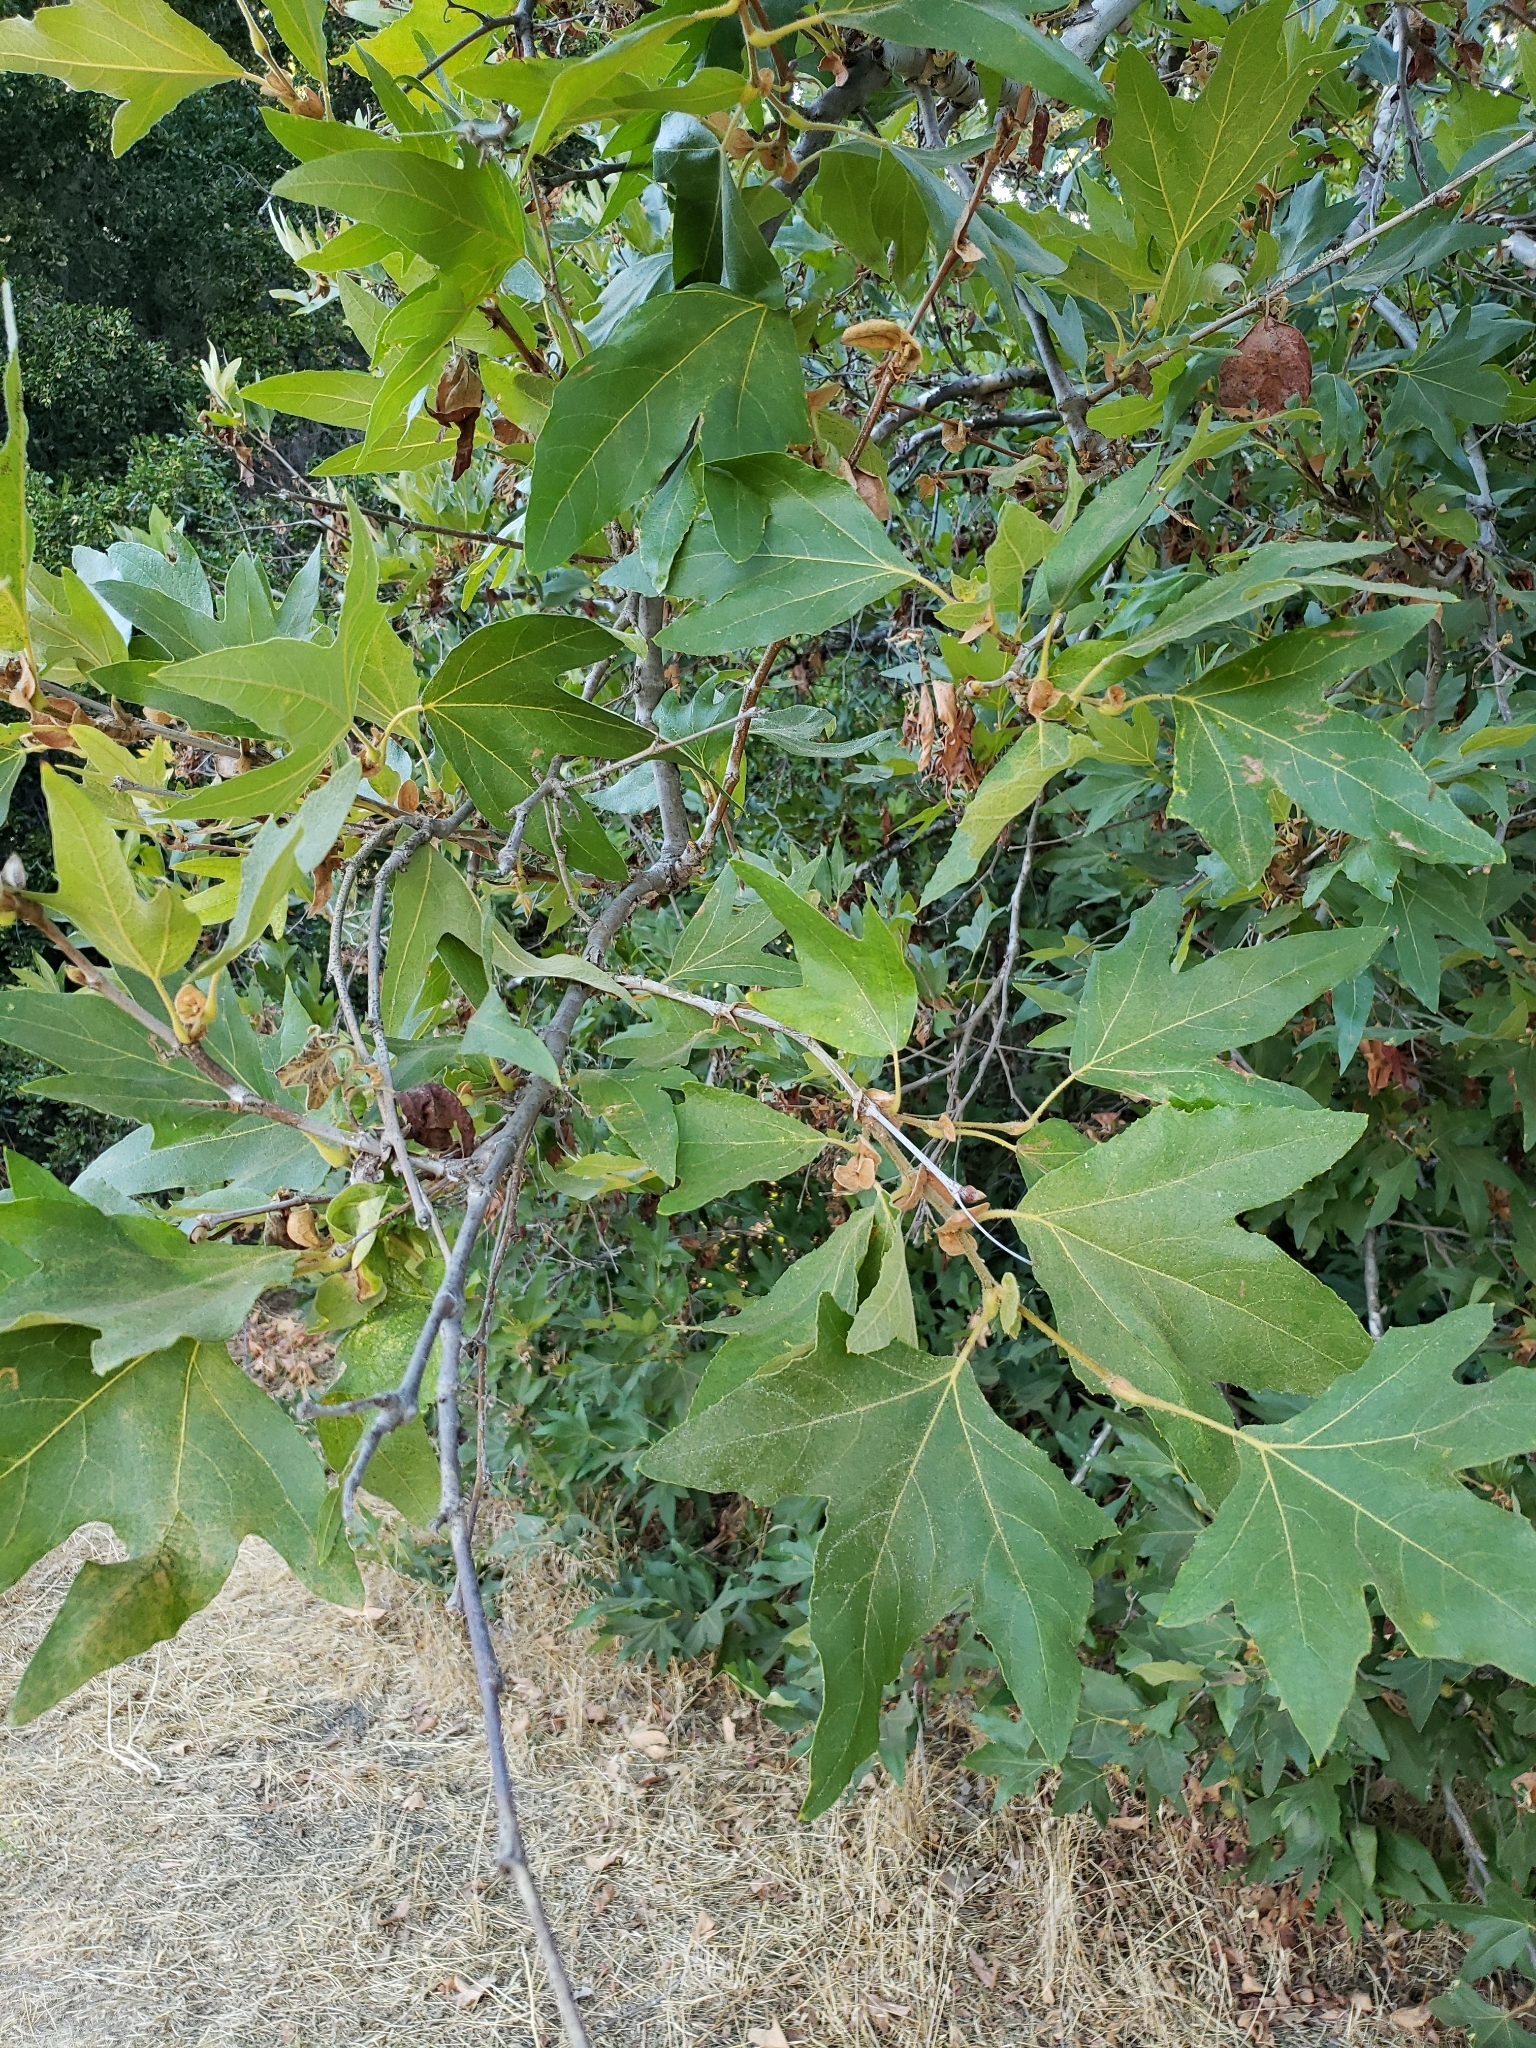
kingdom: Plantae
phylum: Tracheophyta
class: Magnoliopsida
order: Proteales
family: Platanaceae
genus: Platanus
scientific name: Platanus racemosa
